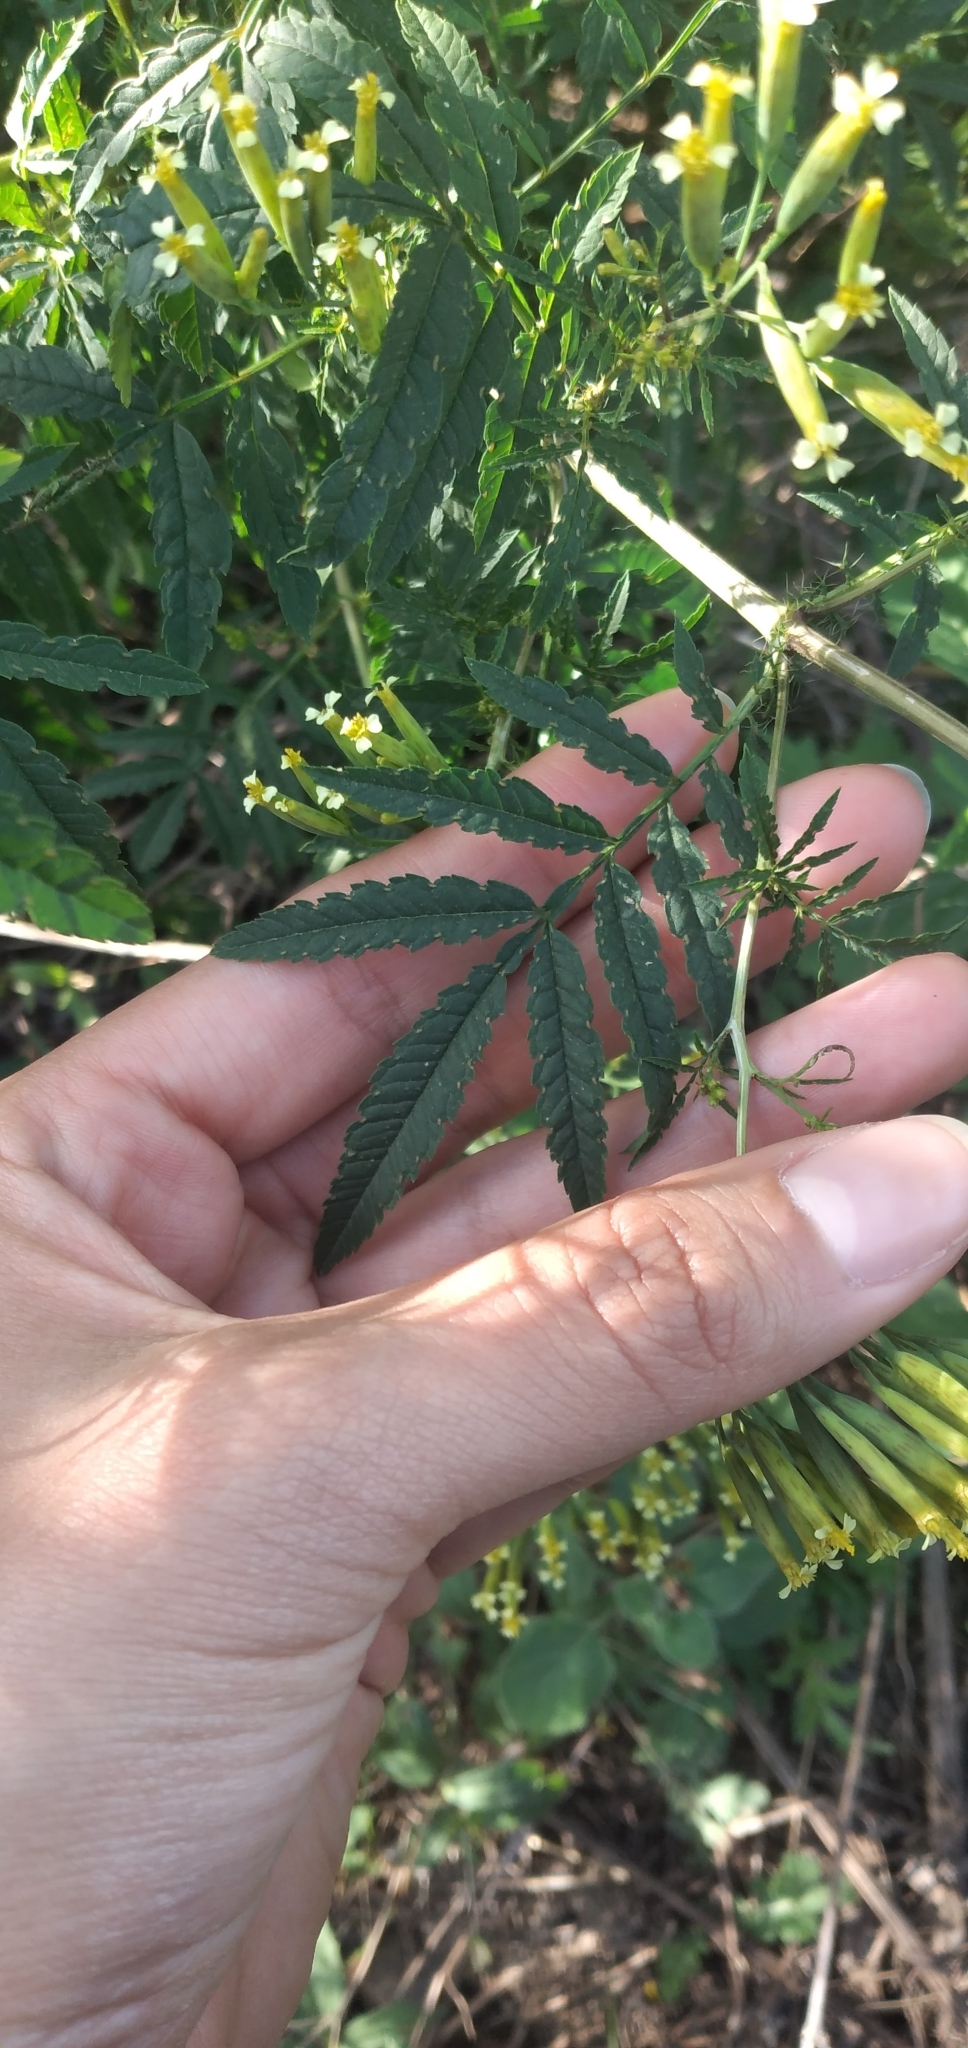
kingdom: Plantae
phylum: Tracheophyta
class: Magnoliopsida
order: Asterales
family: Asteraceae
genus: Tagetes
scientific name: Tagetes minuta
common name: Muster john henry
